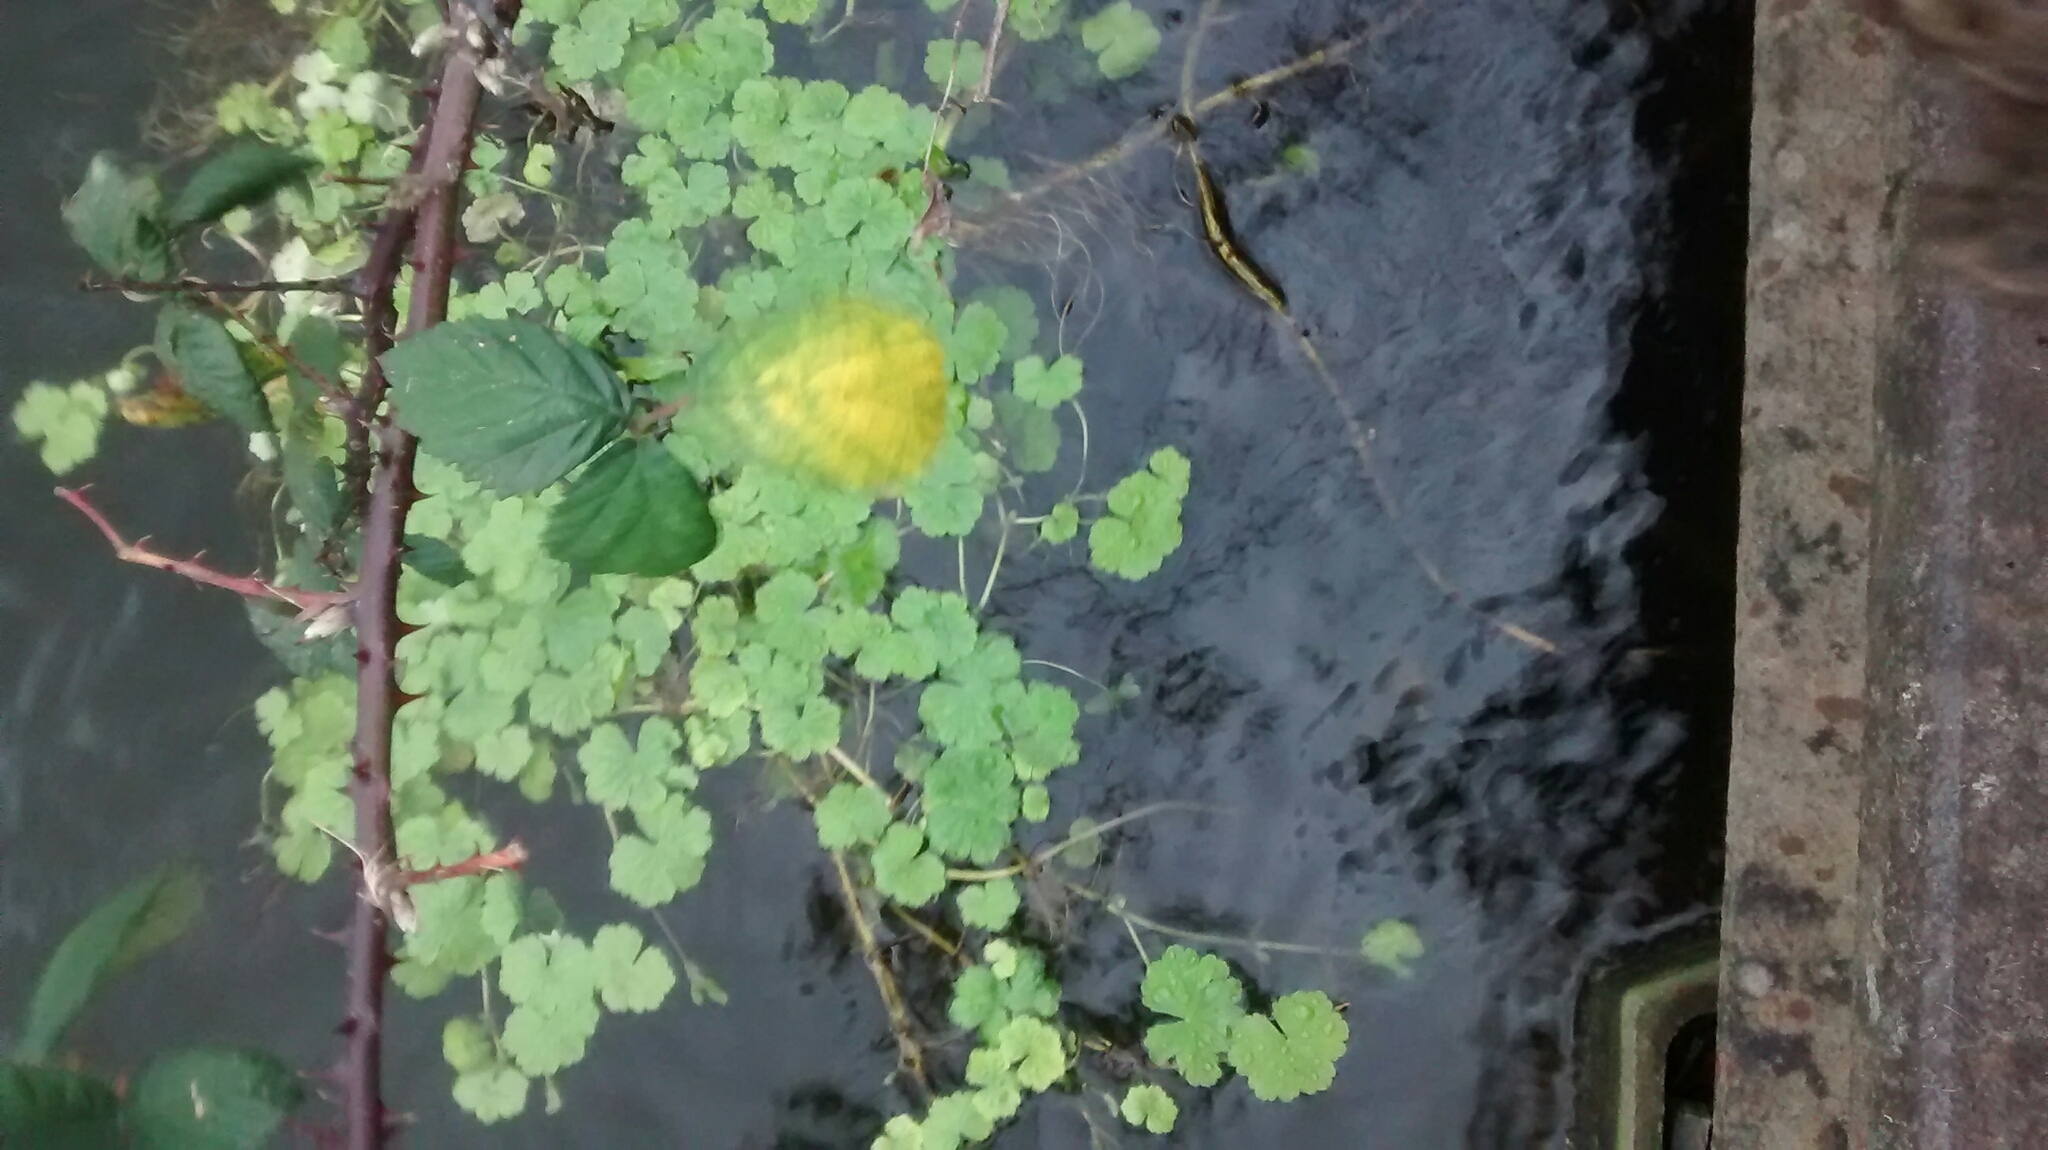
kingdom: Plantae
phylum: Tracheophyta
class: Magnoliopsida
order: Apiales
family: Araliaceae
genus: Hydrocotyle
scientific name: Hydrocotyle ranunculoides
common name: Floating pennywort
